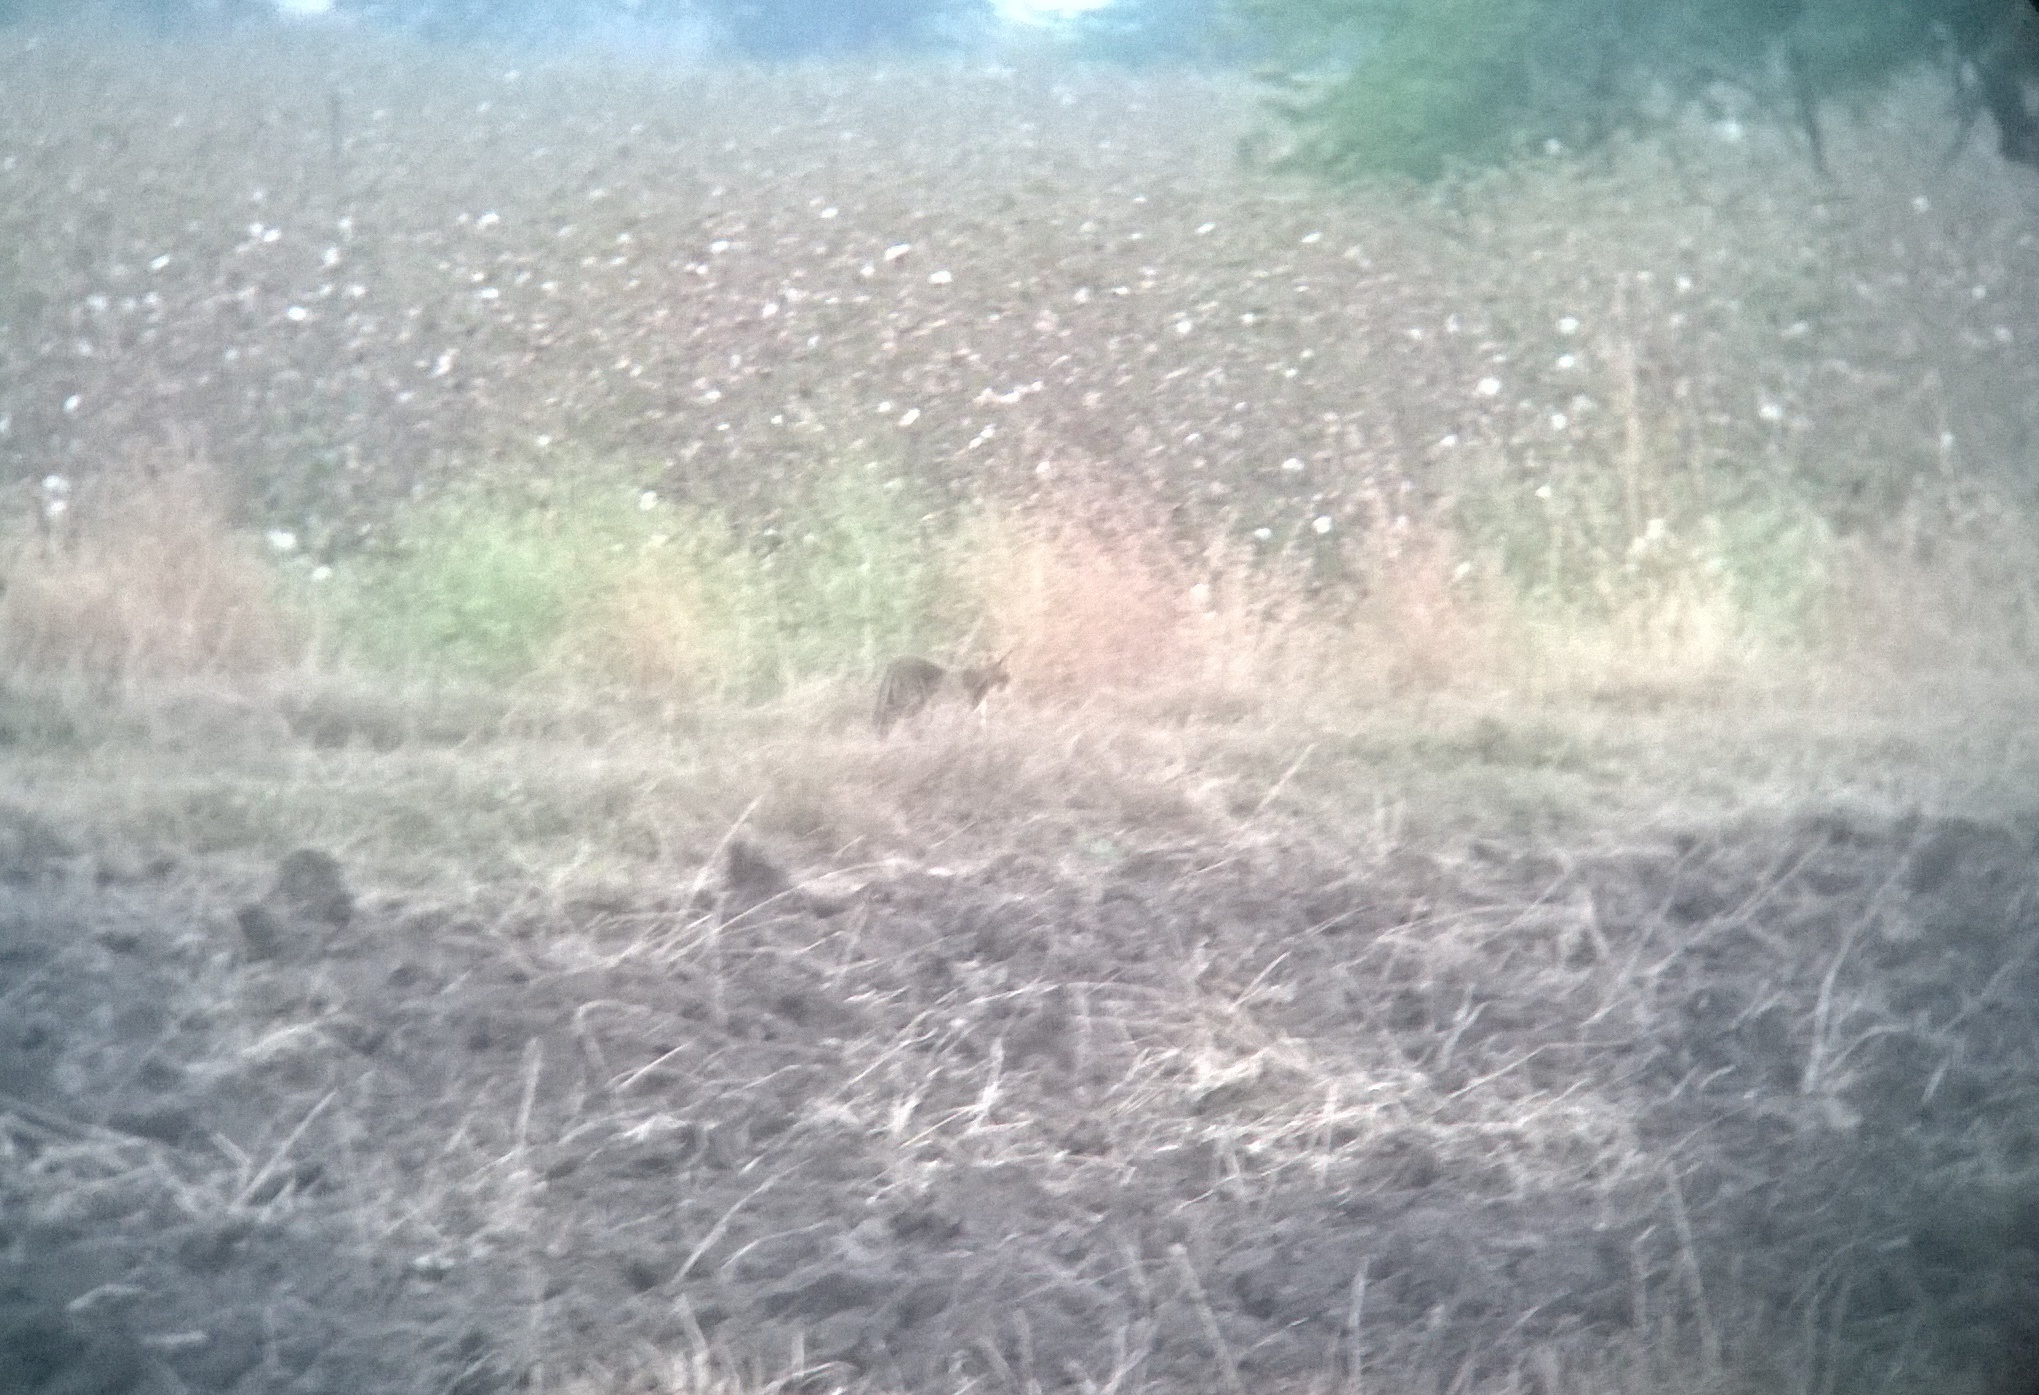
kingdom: Animalia
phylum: Chordata
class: Mammalia
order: Carnivora
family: Felidae
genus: Felis
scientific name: Felis chaus
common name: Jungle cat
